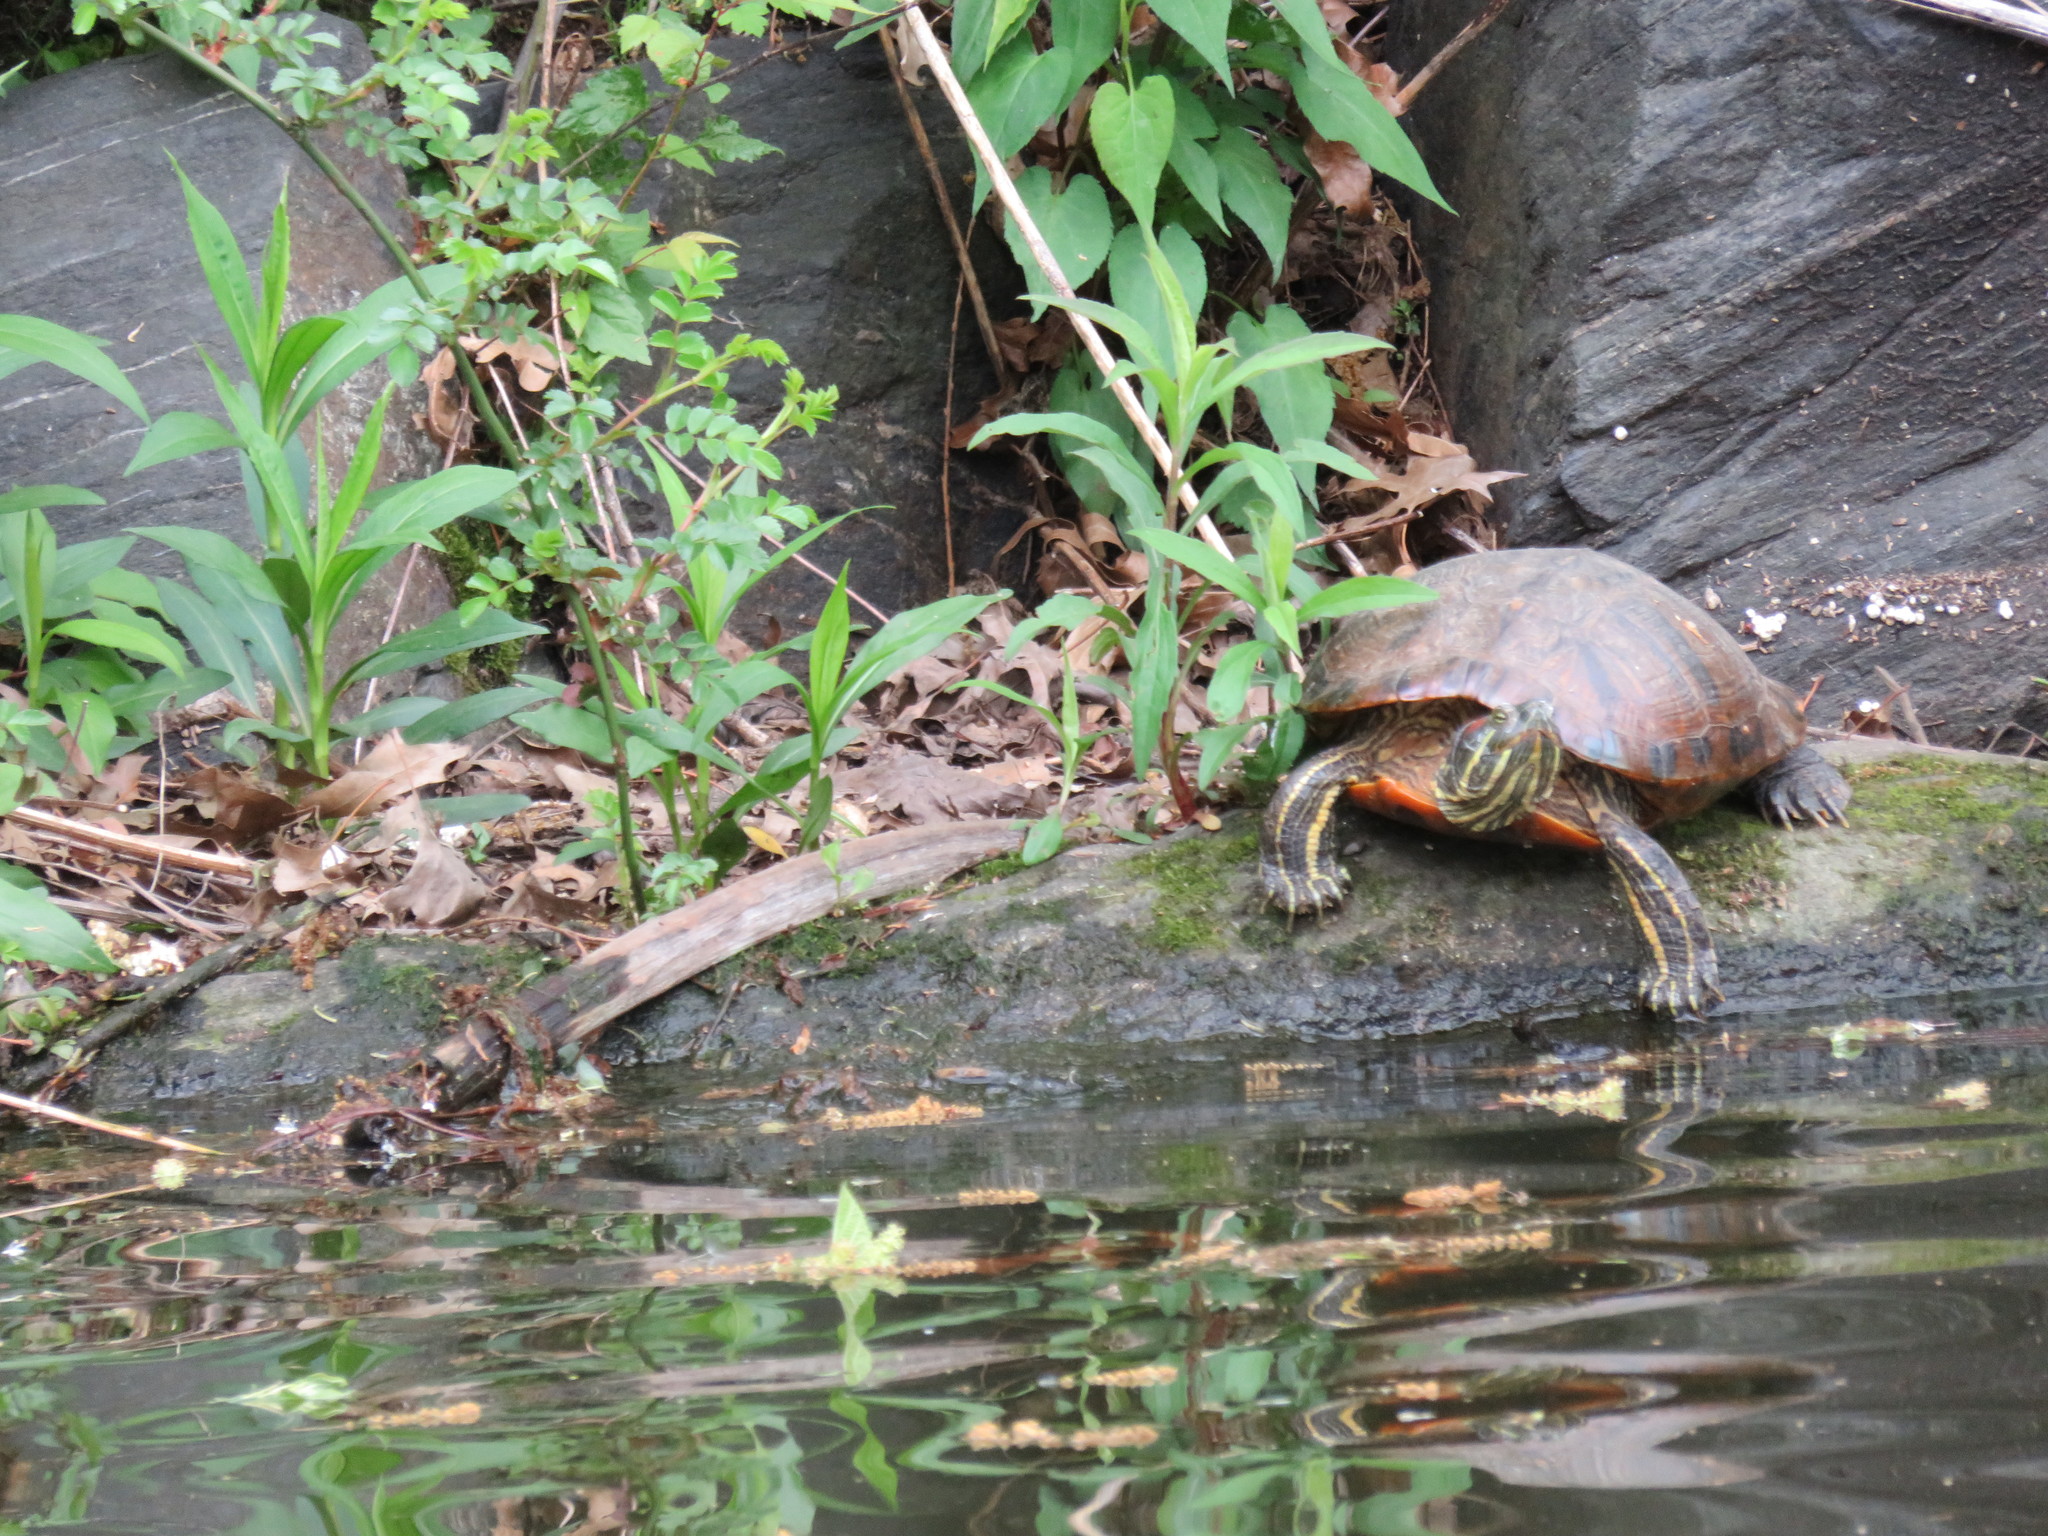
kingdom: Animalia
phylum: Chordata
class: Testudines
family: Emydidae
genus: Trachemys
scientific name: Trachemys scripta
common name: Slider
